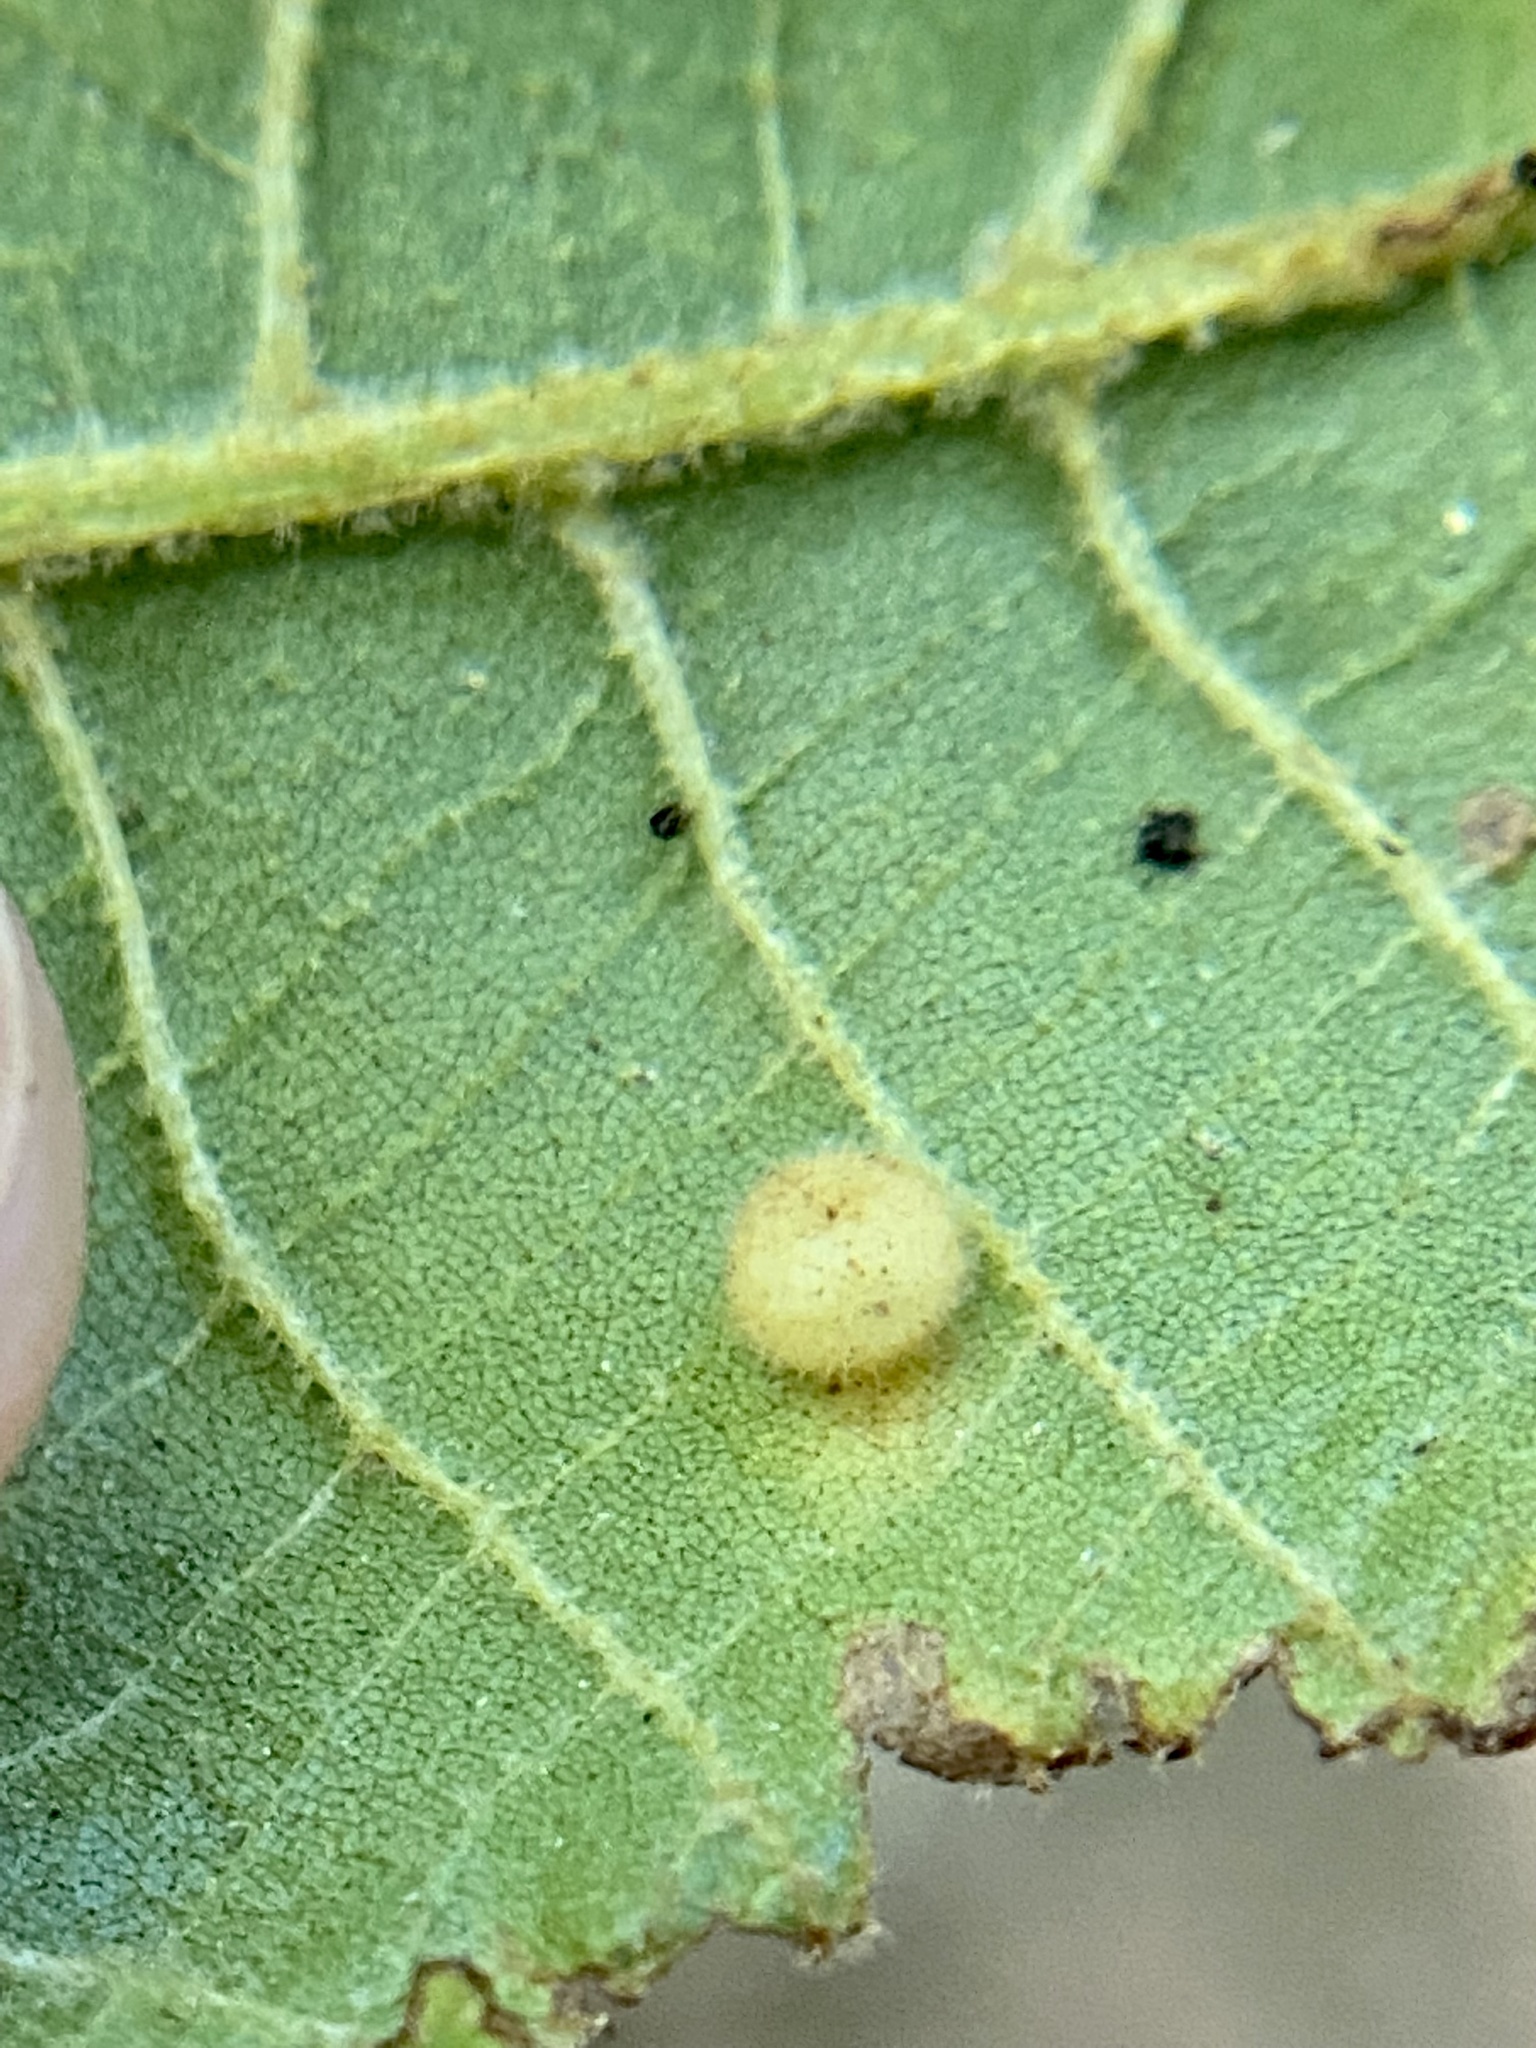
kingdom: Animalia
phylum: Arthropoda
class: Insecta
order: Diptera
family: Cecidomyiidae
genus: Caryomyia
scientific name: Caryomyia thompsoni
